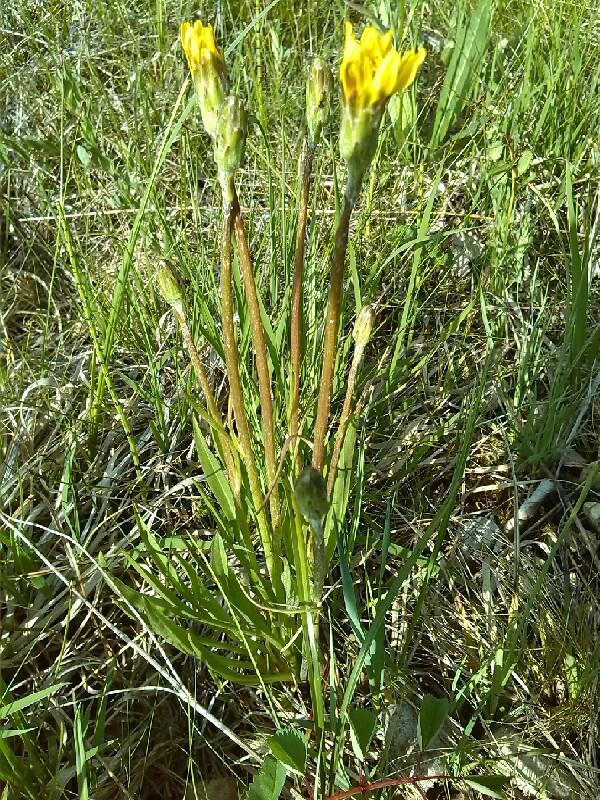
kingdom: Plantae
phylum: Tracheophyta
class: Magnoliopsida
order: Asterales
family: Asteraceae
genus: Scorzonera
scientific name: Scorzonera humilis
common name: Viper's-grass
